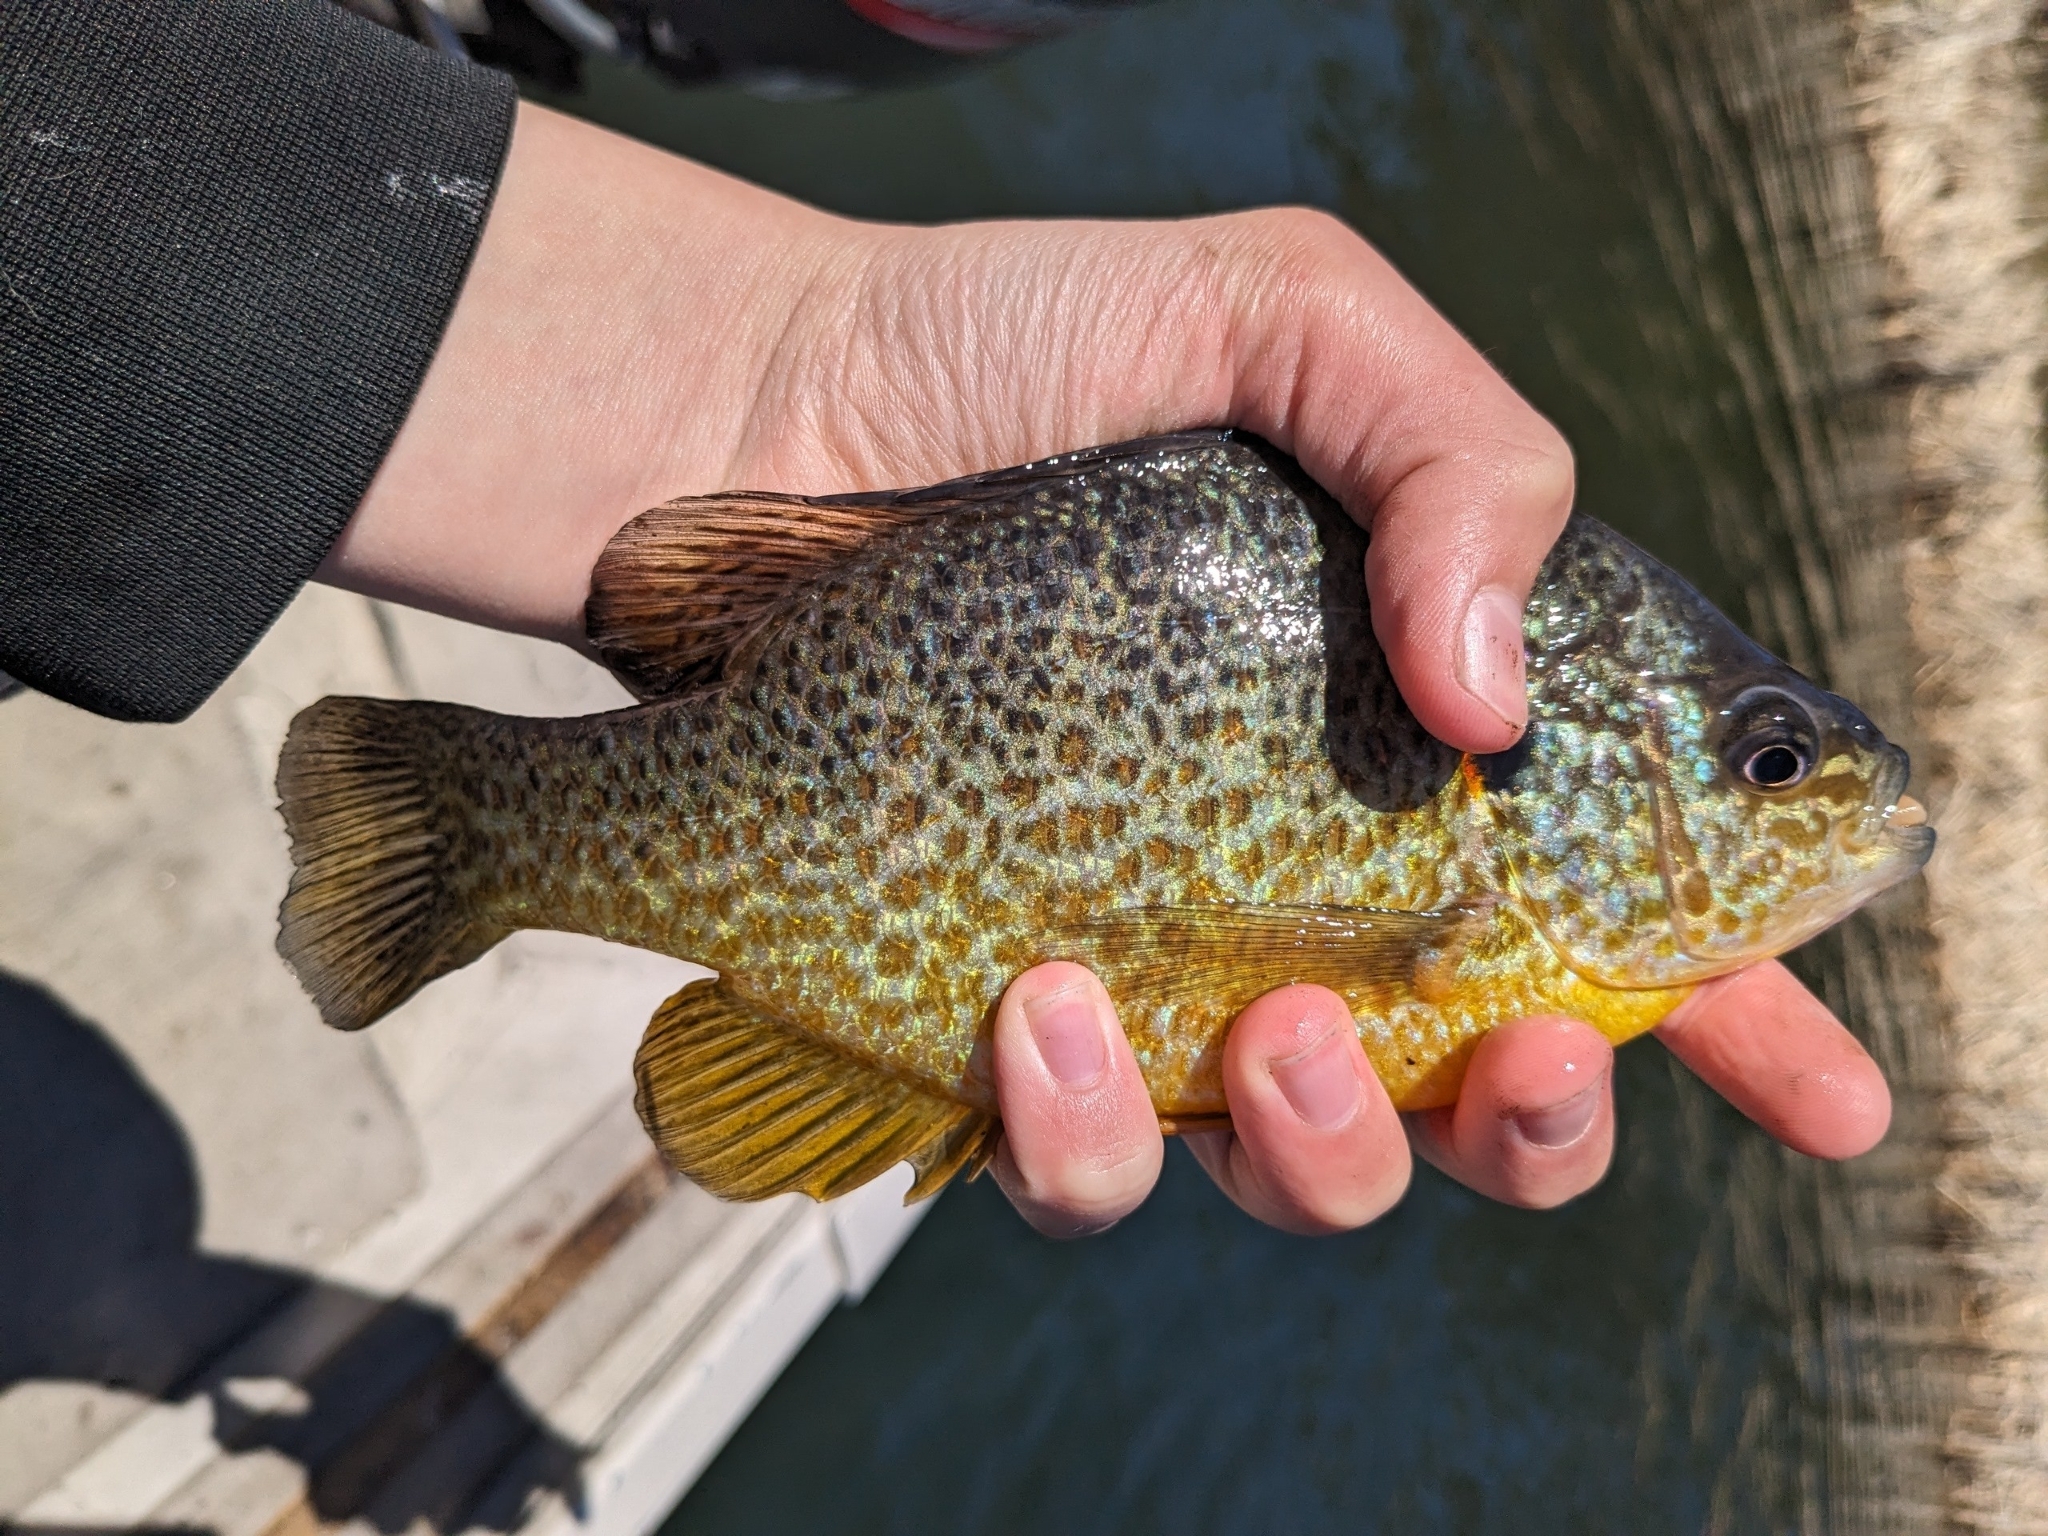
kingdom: Animalia
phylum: Chordata
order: Perciformes
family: Centrarchidae
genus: Lepomis
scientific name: Lepomis gibbosus
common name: Pumpkinseed
